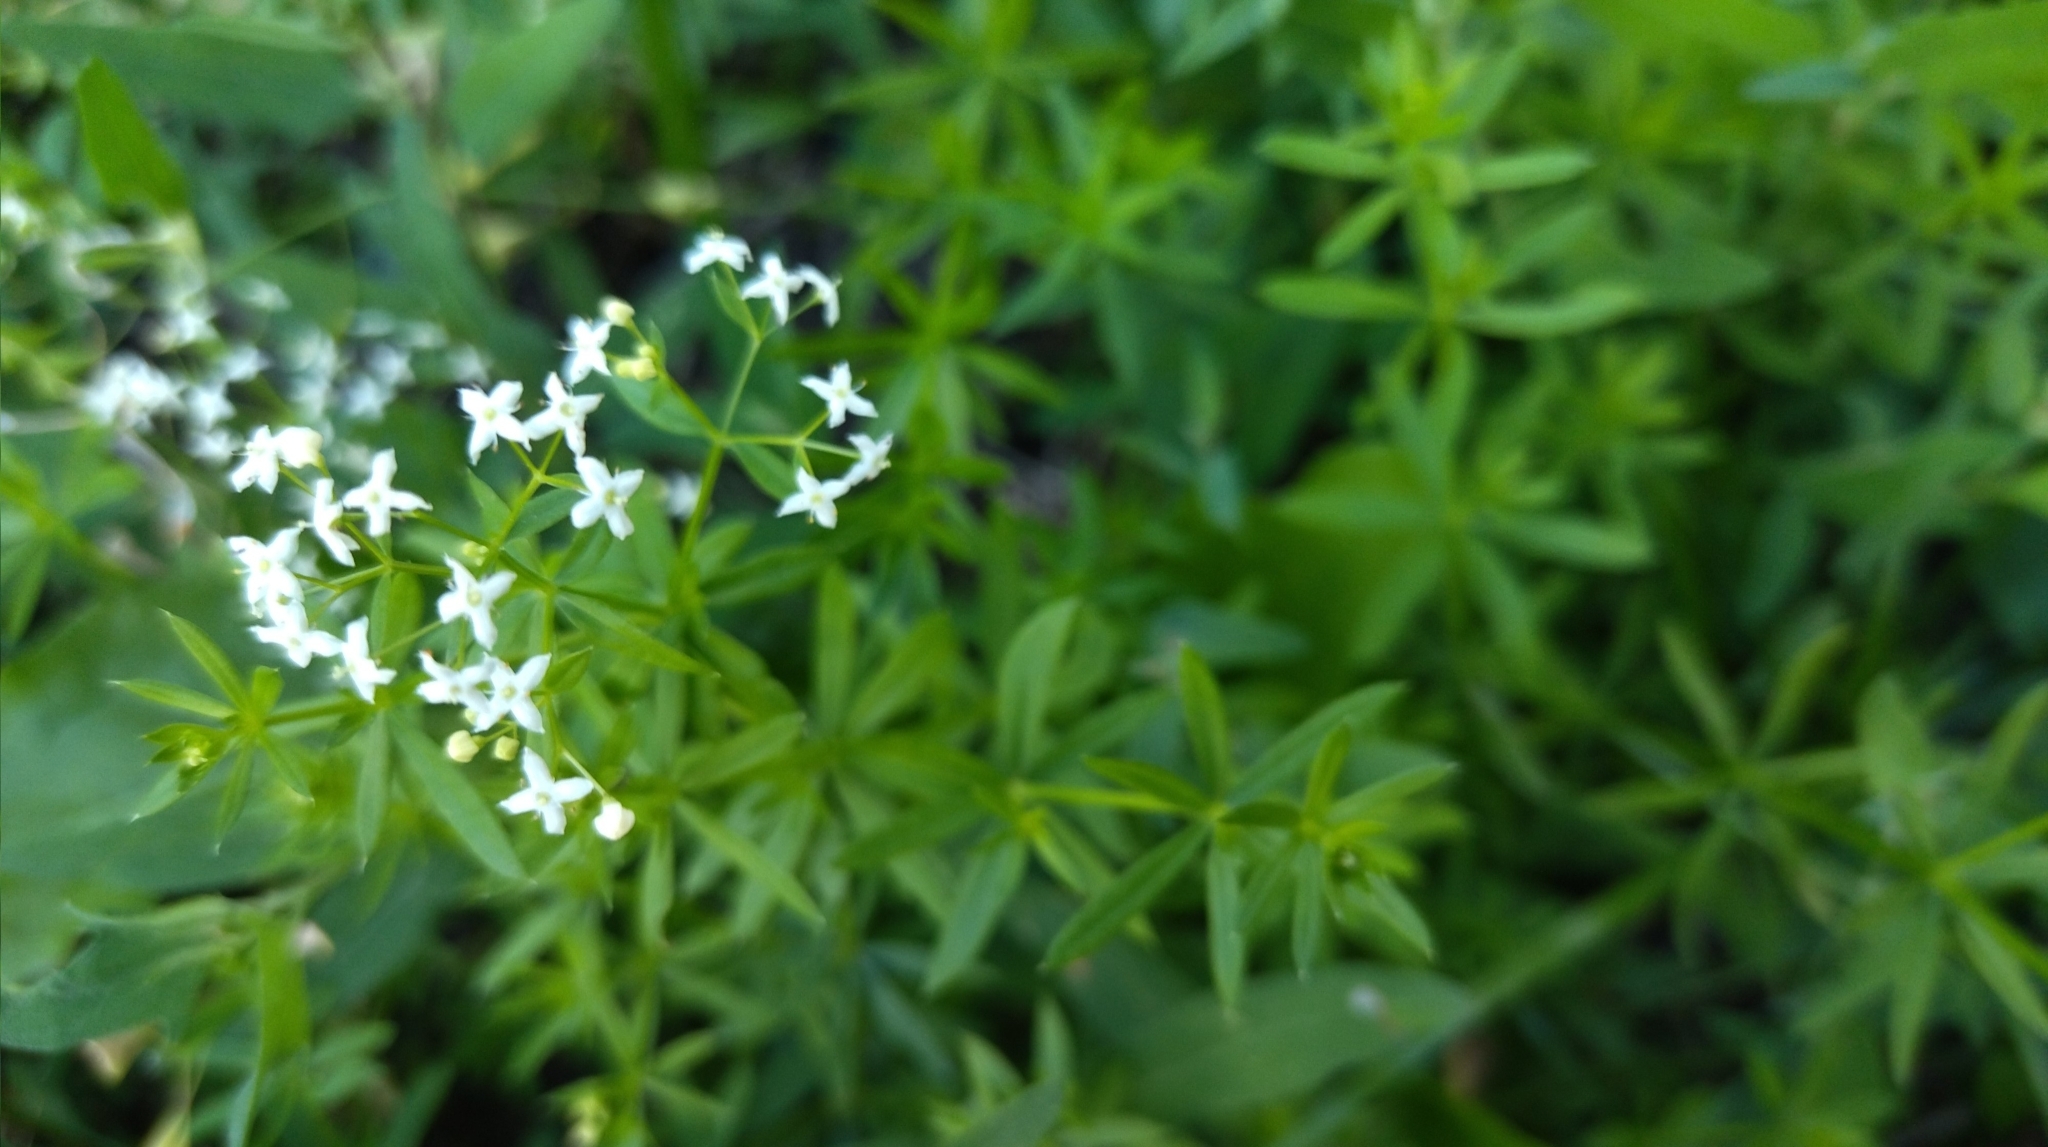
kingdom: Plantae
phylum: Tracheophyta
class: Magnoliopsida
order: Gentianales
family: Rubiaceae
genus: Galium
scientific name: Galium mollugo
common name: Hedge bedstraw
